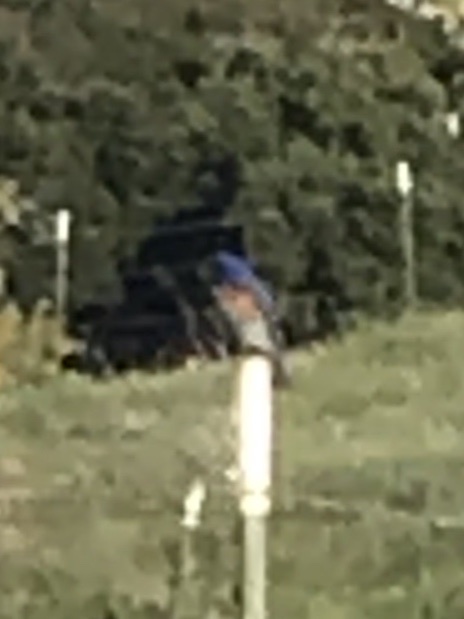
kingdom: Animalia
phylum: Chordata
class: Aves
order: Passeriformes
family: Turdidae
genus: Sialia
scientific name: Sialia mexicana
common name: Western bluebird
